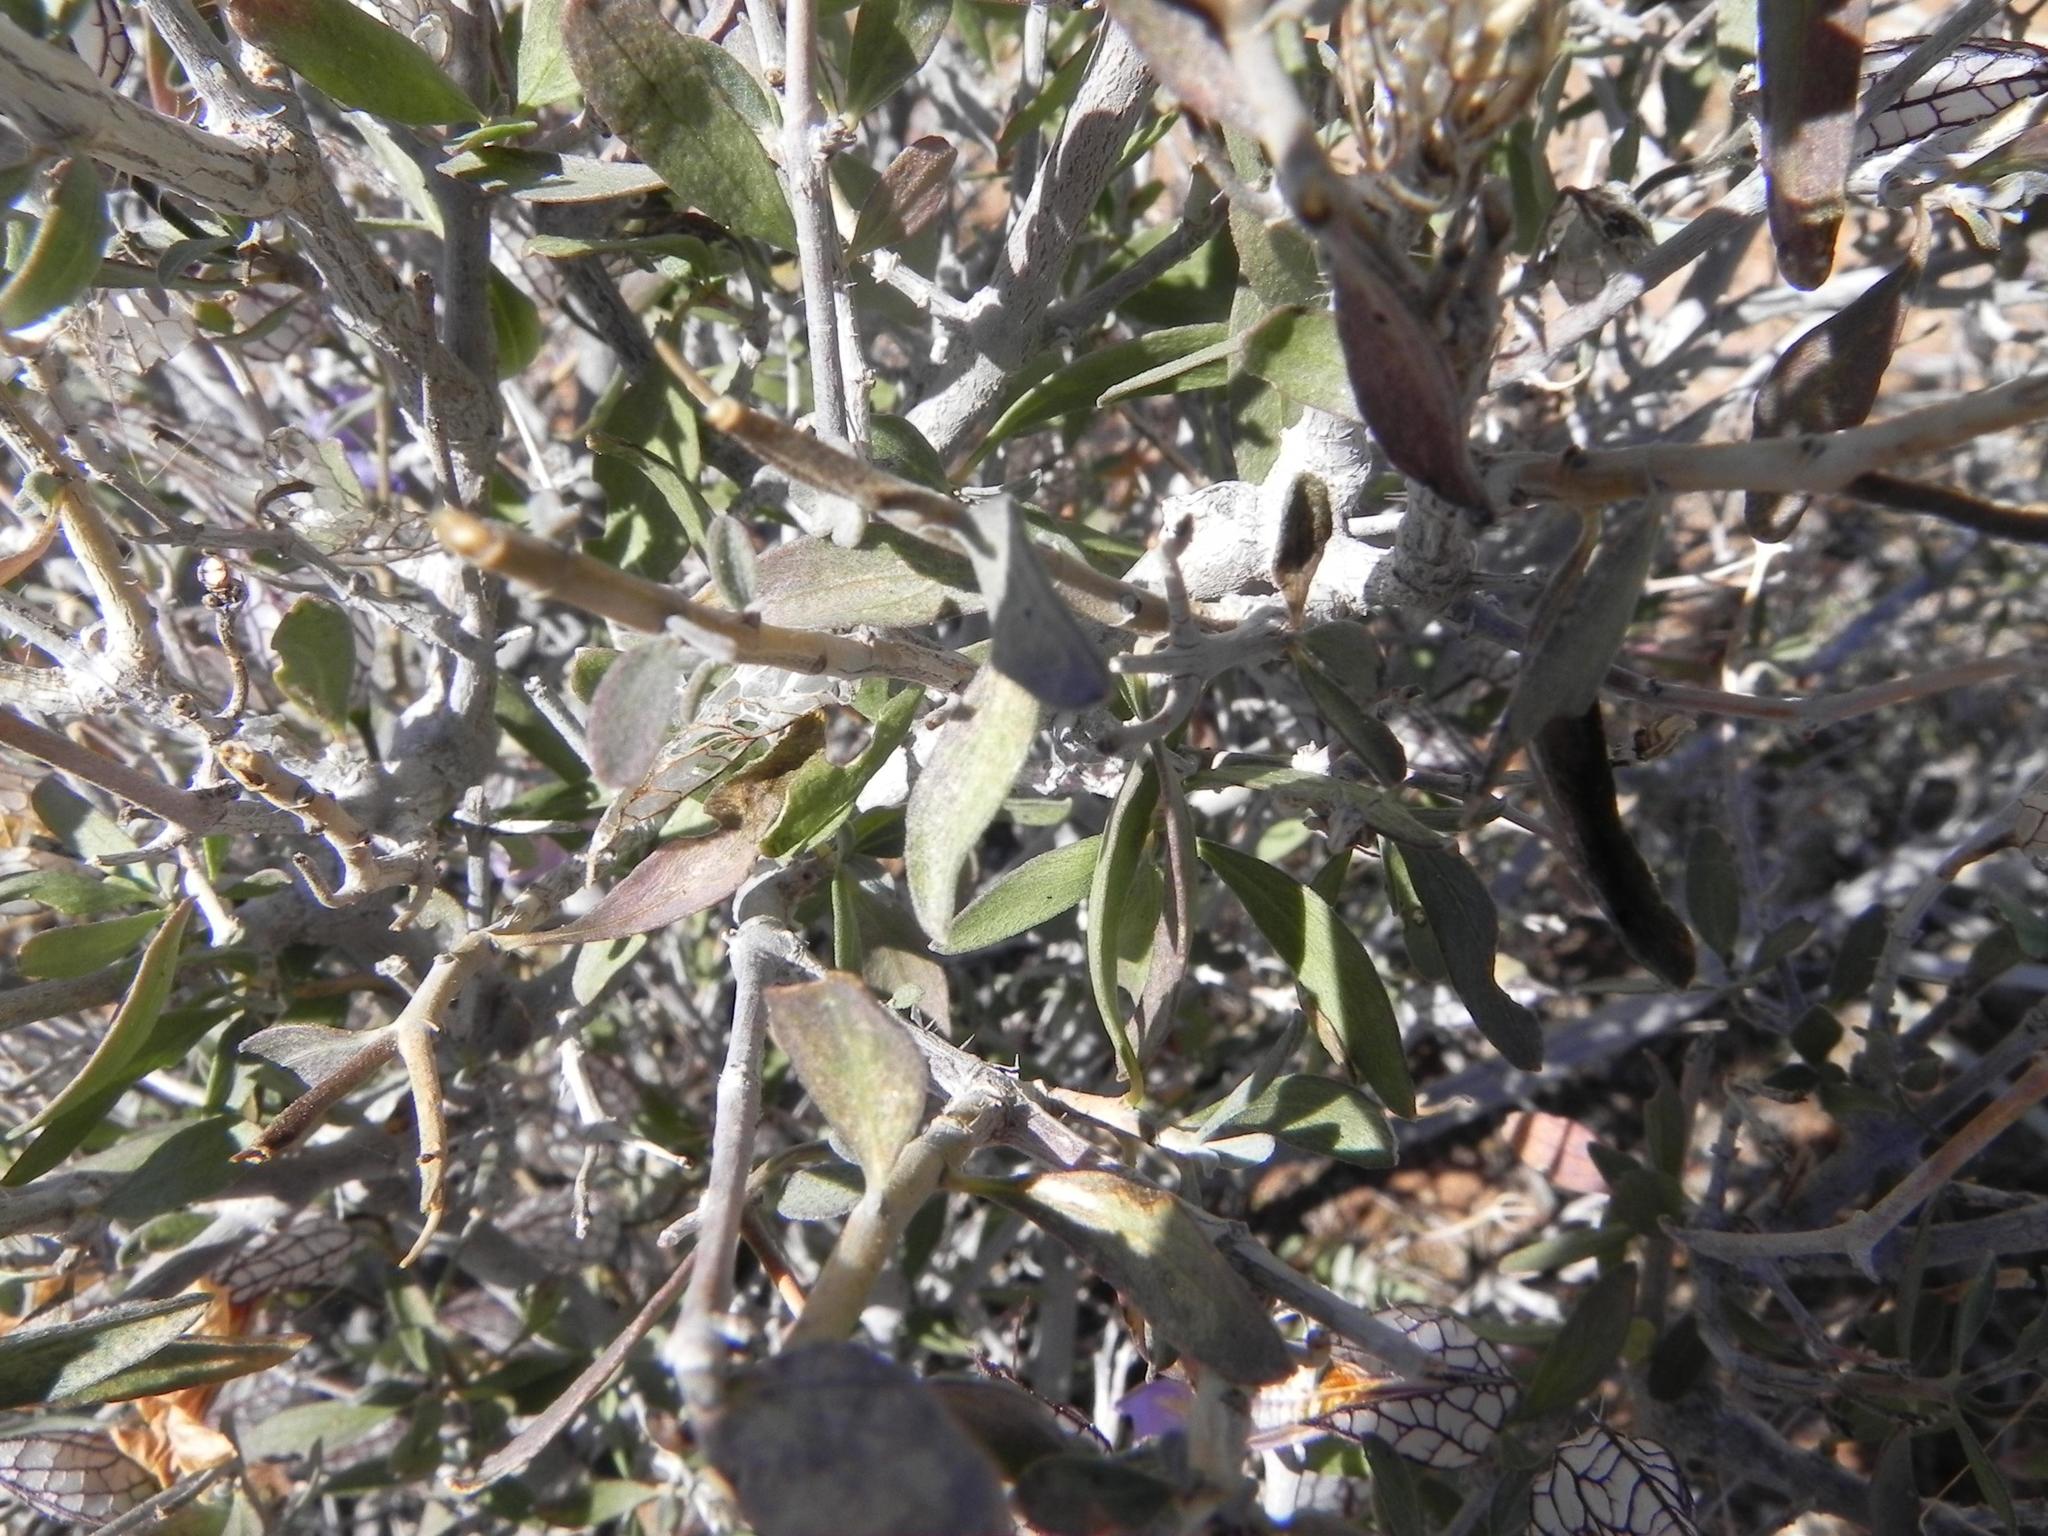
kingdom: Plantae
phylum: Tracheophyta
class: Magnoliopsida
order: Lamiales
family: Acanthaceae
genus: Petalidium
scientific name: Petalidium lucens
